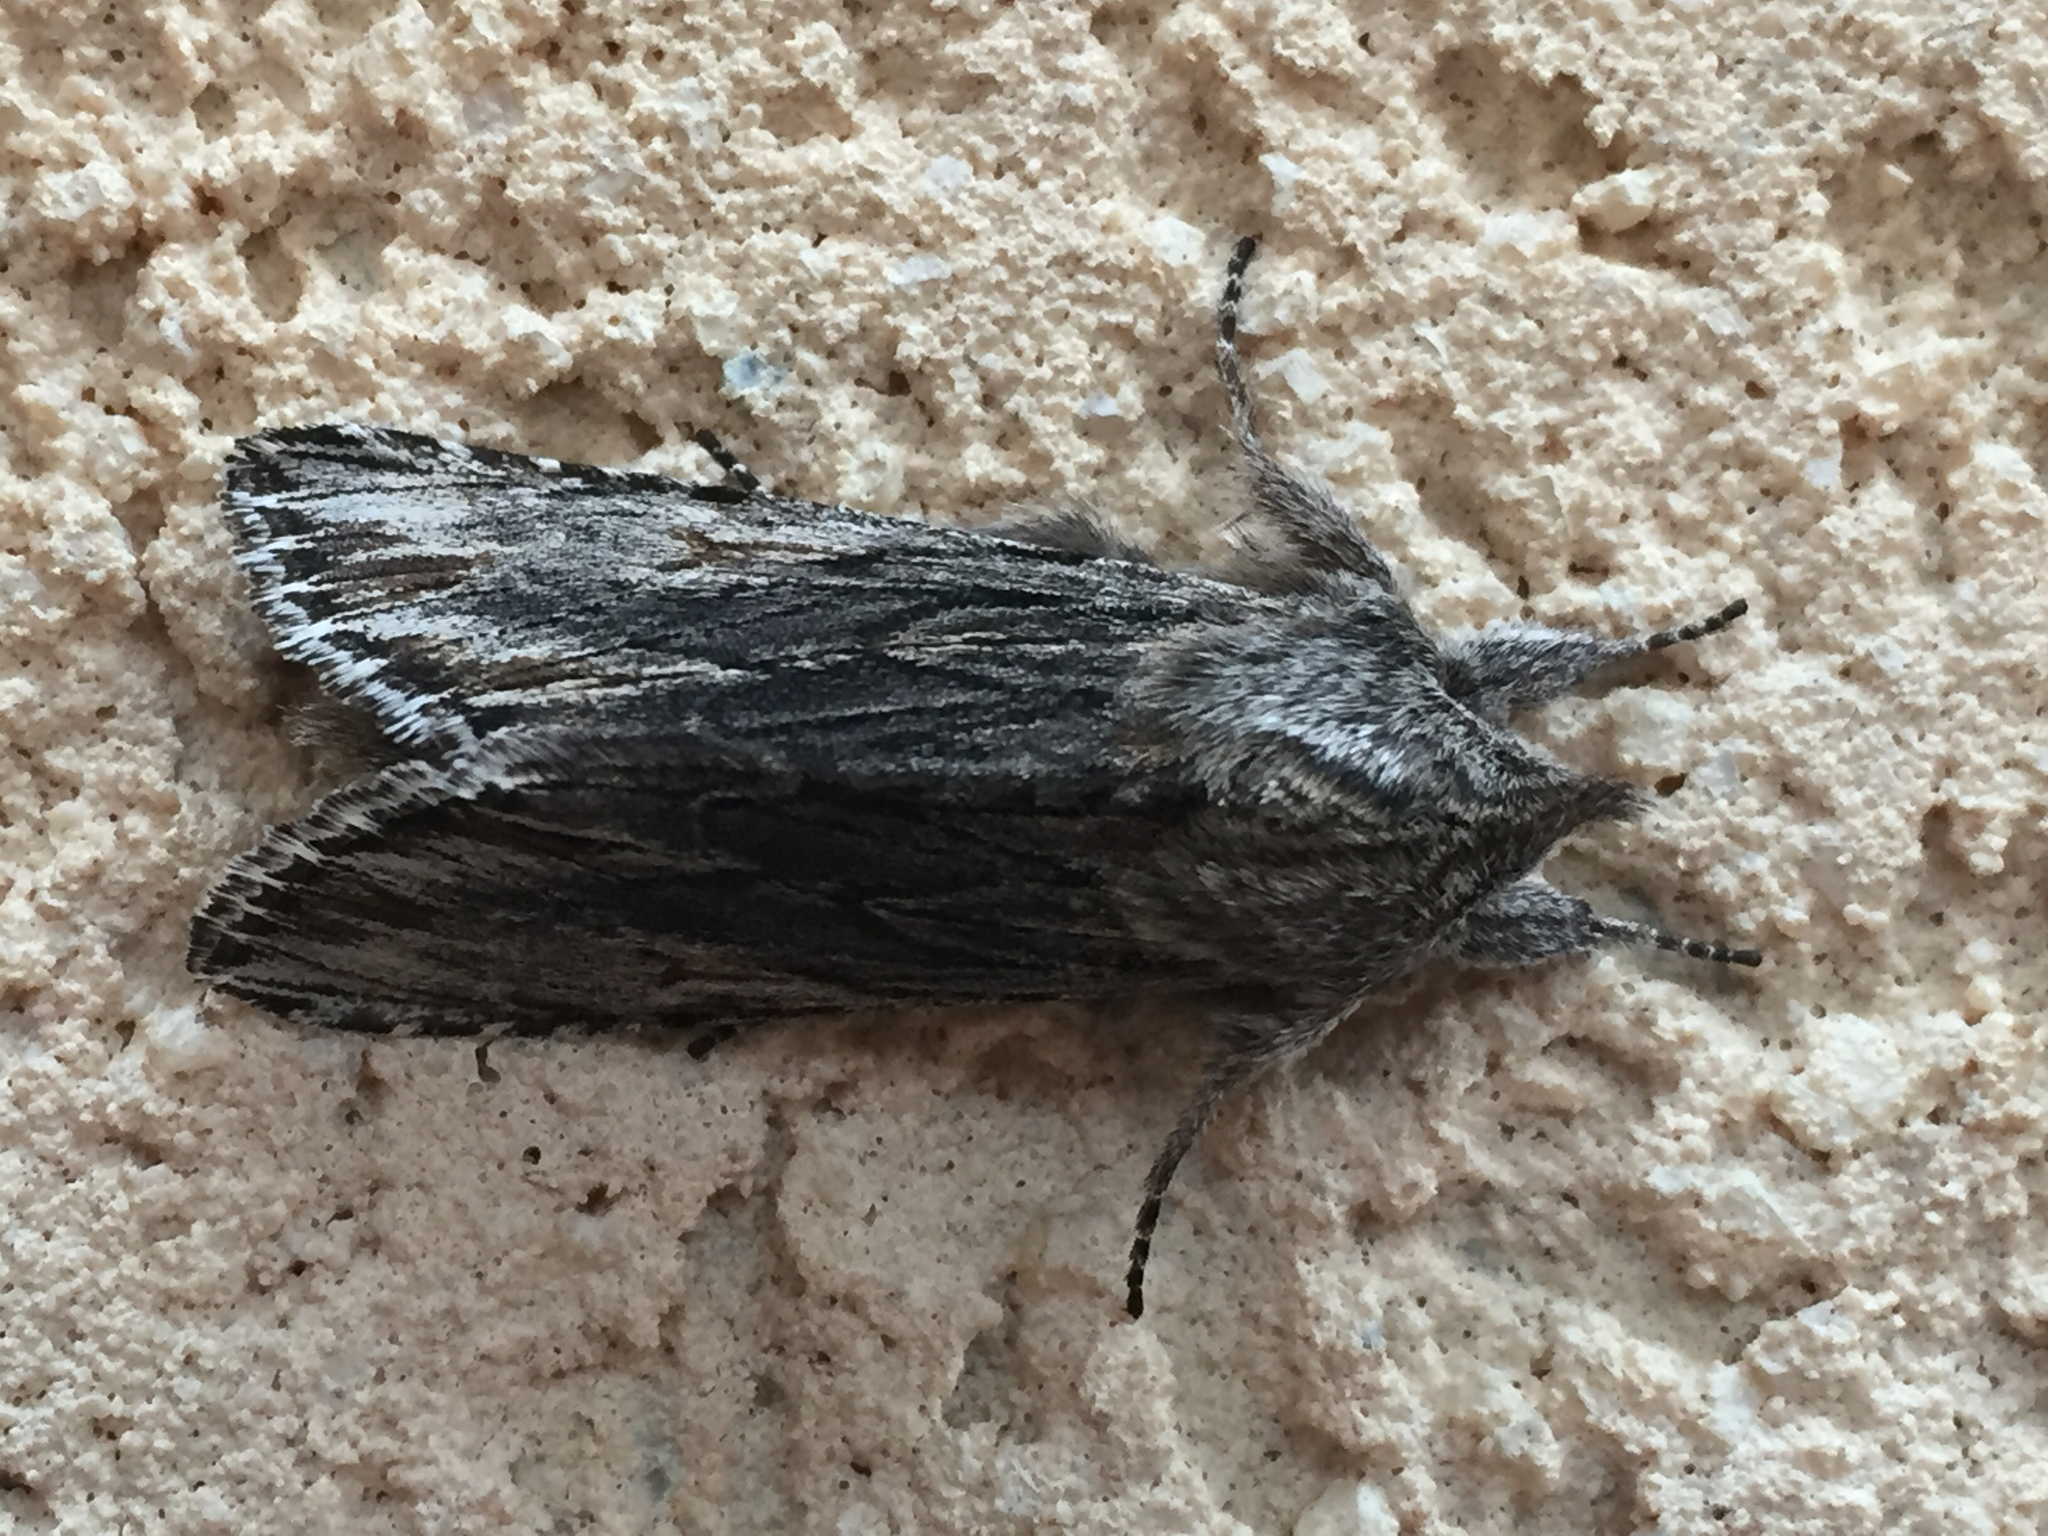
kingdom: Animalia
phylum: Arthropoda
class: Insecta
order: Lepidoptera
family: Noctuidae
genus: Cucullia
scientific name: Cucullia pulla
